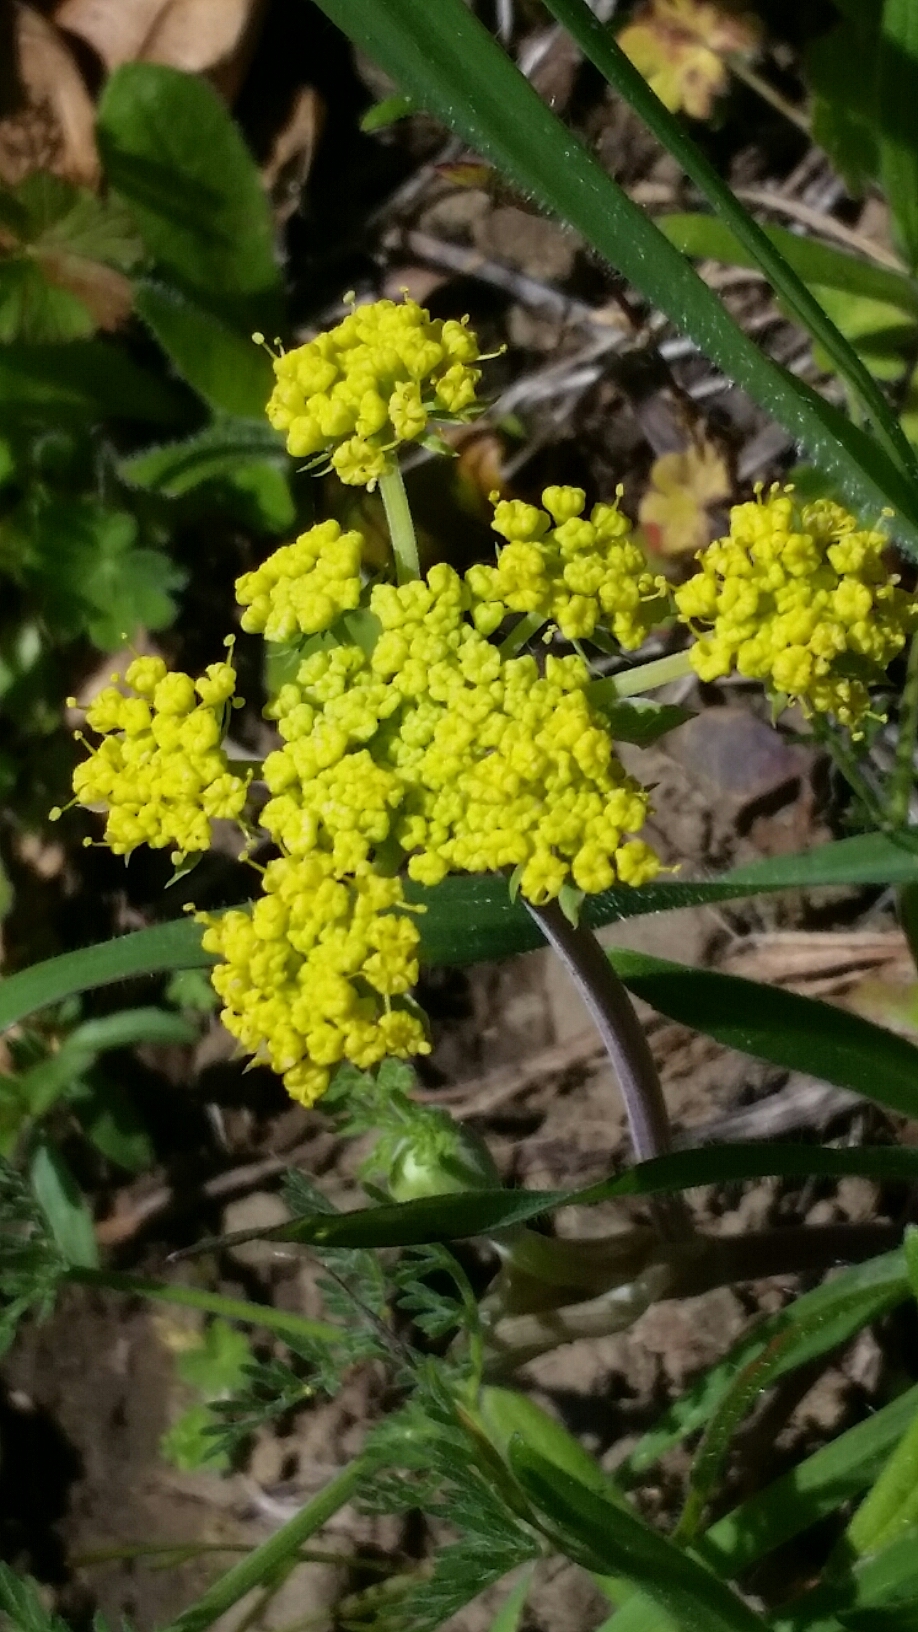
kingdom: Plantae
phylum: Tracheophyta
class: Magnoliopsida
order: Apiales
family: Apiaceae
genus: Lomatium
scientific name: Lomatium utriculatum
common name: Fine-leaf desert-parsley
